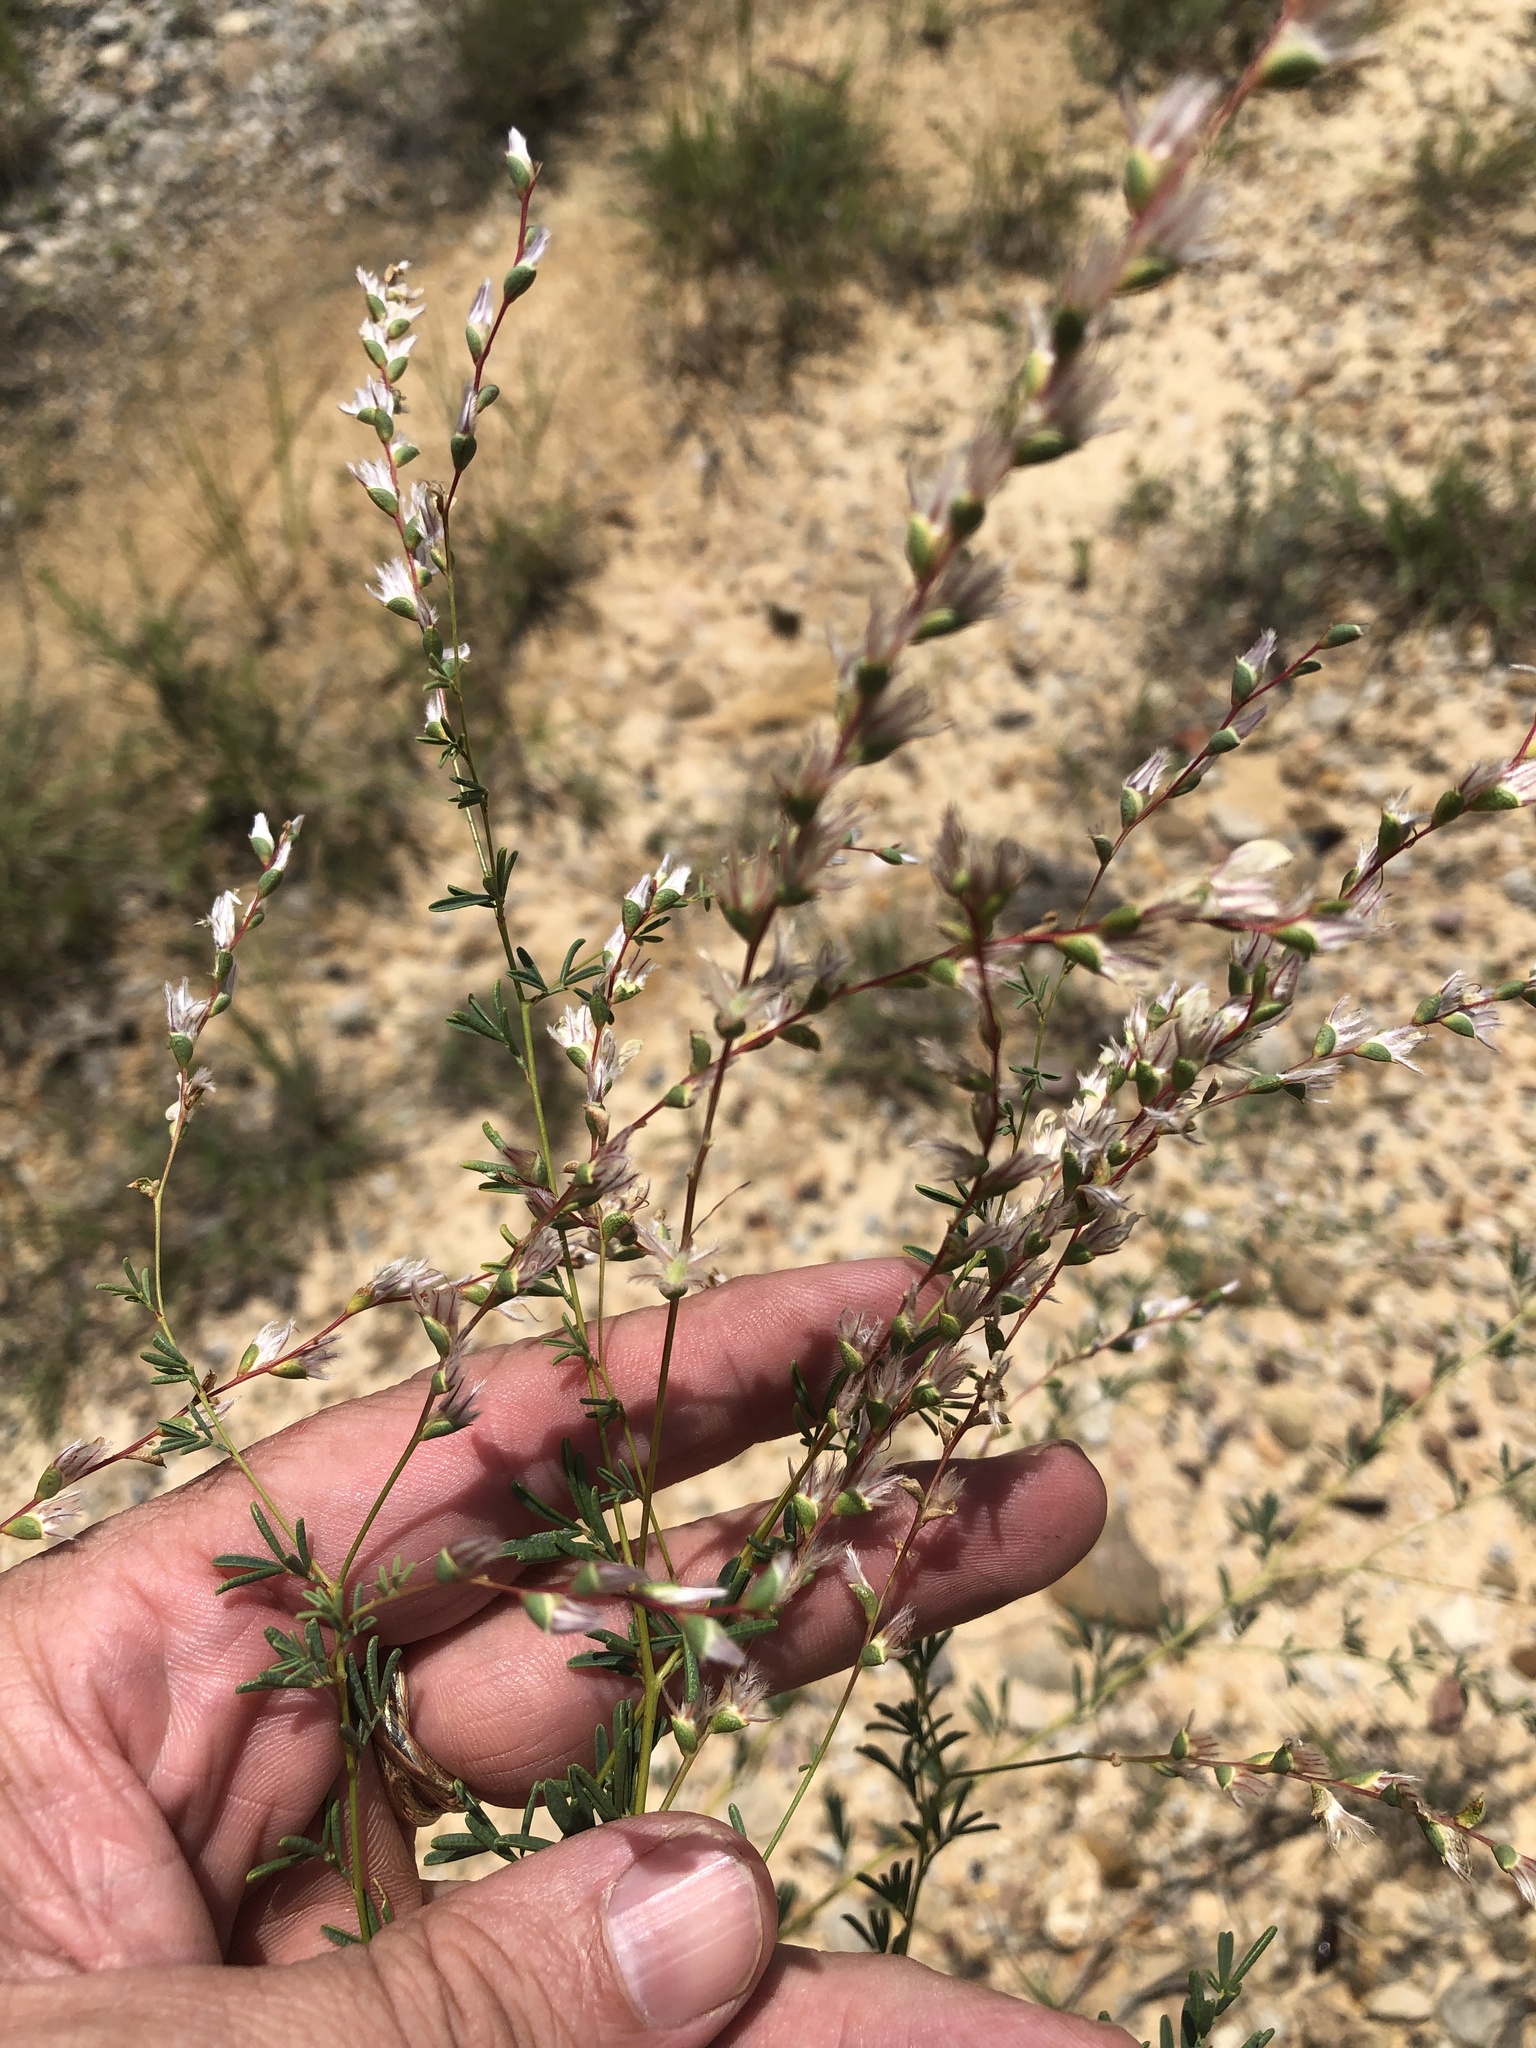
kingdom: Plantae
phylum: Tracheophyta
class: Magnoliopsida
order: Fabales
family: Fabaceae
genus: Dalea
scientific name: Dalea enneandra
